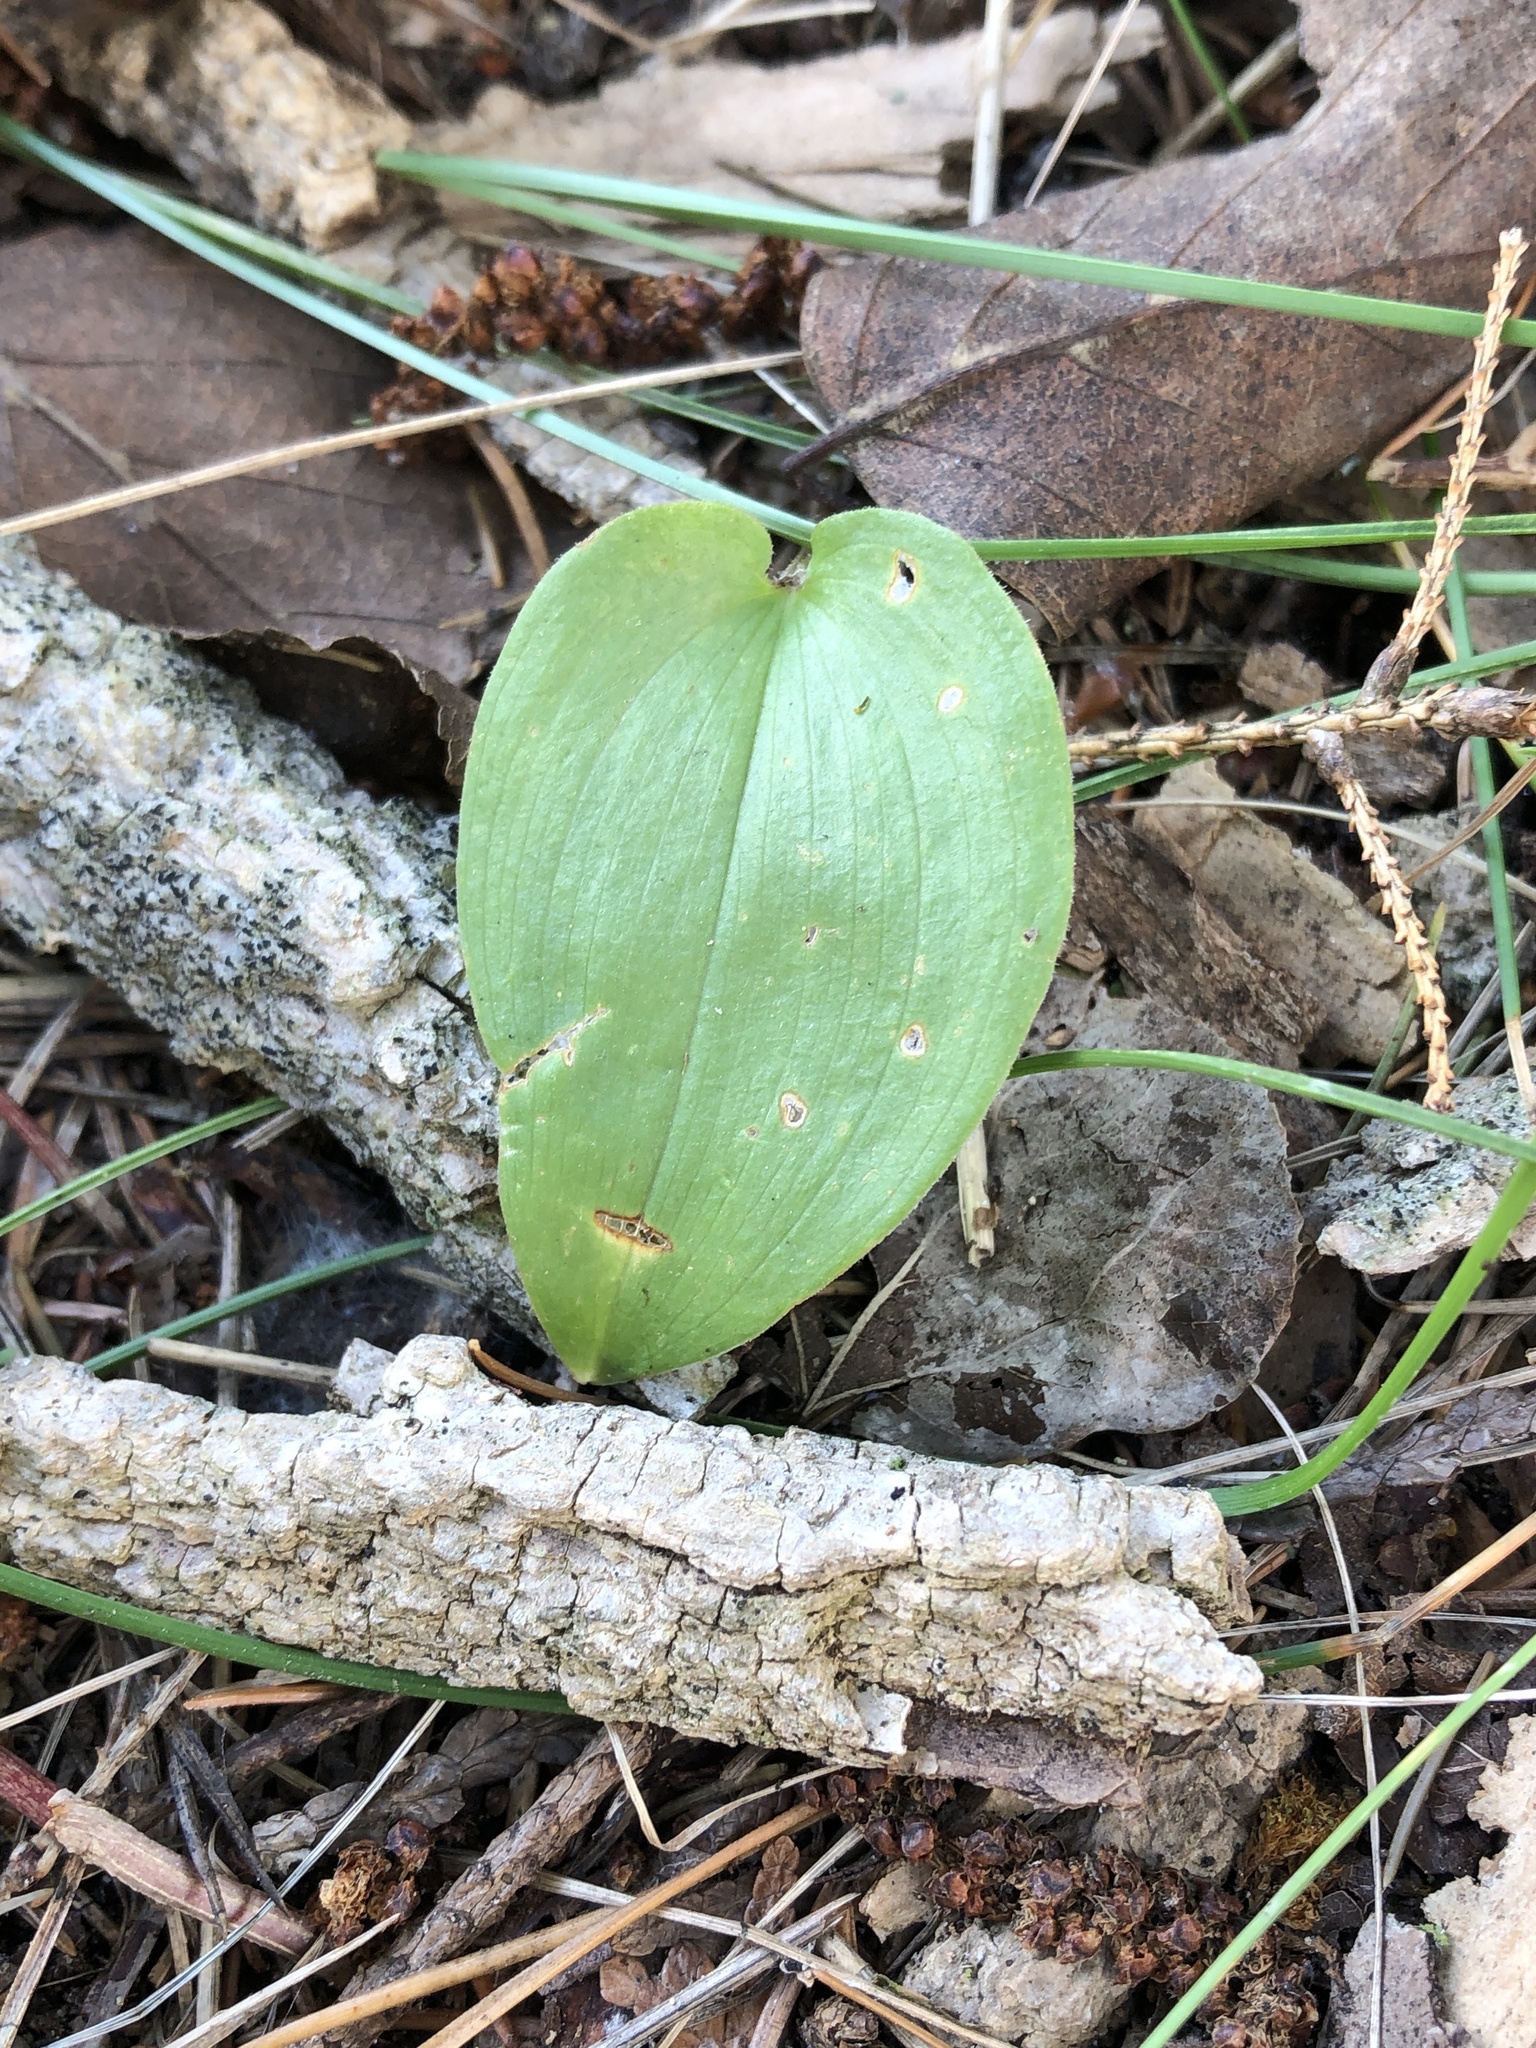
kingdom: Plantae
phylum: Tracheophyta
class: Liliopsida
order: Asparagales
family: Asparagaceae
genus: Maianthemum
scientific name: Maianthemum canadense
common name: False lily-of-the-valley
